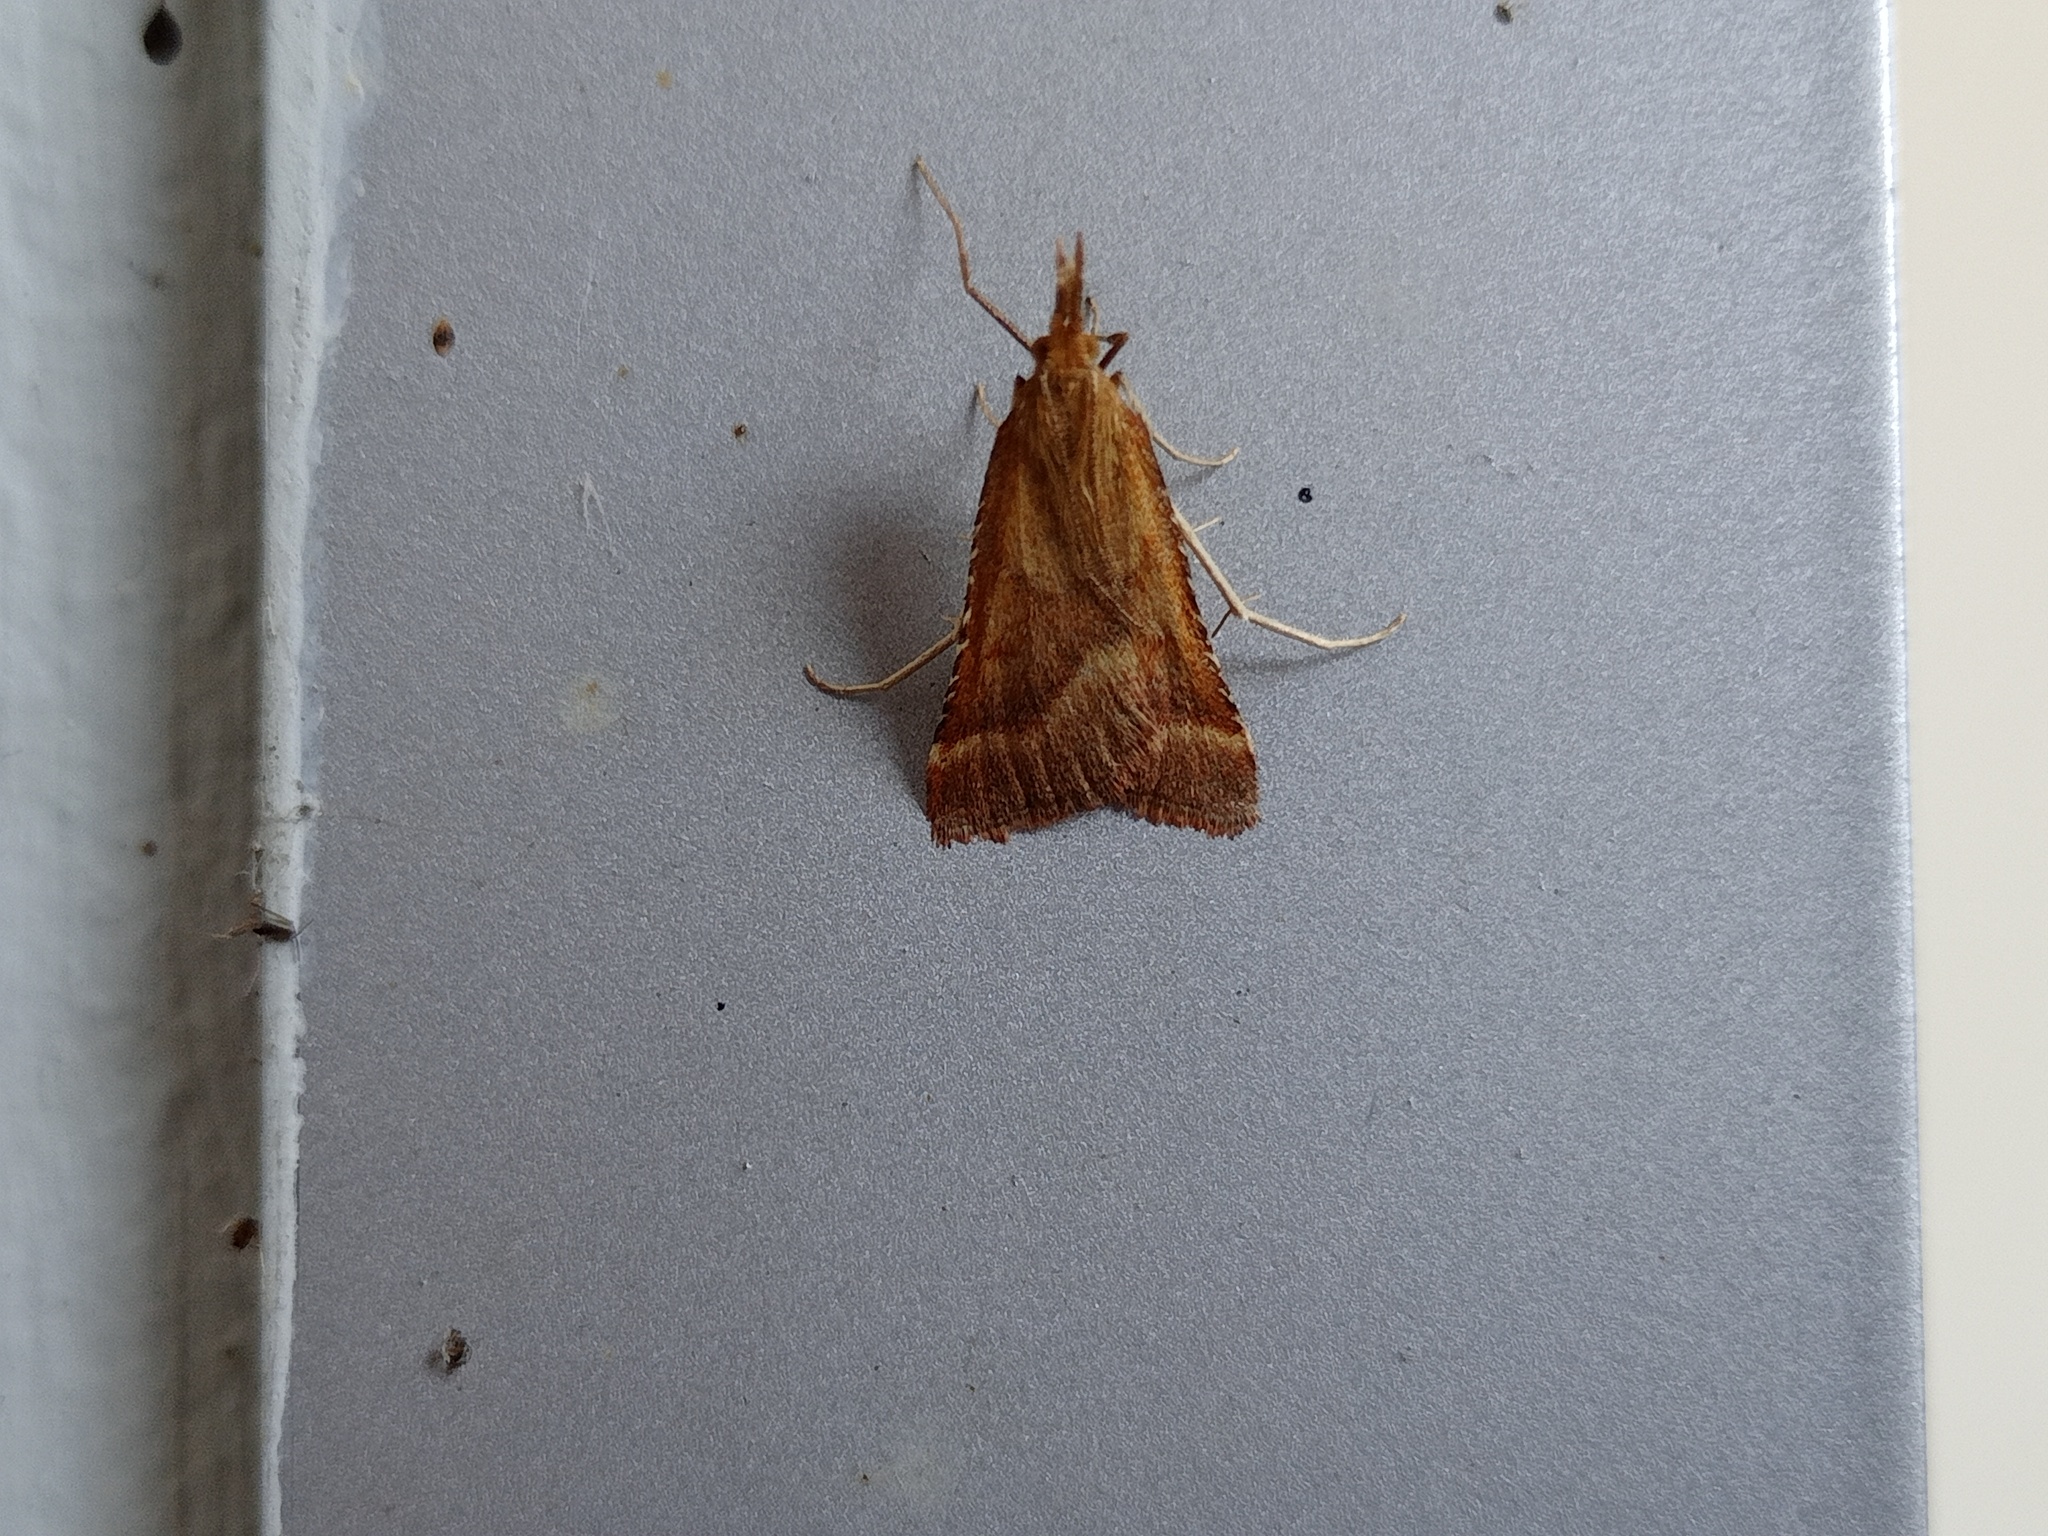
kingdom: Animalia
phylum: Arthropoda
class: Insecta
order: Lepidoptera
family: Pyralidae
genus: Synaphe
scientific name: Synaphe punctalis
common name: Long-legged tabby
